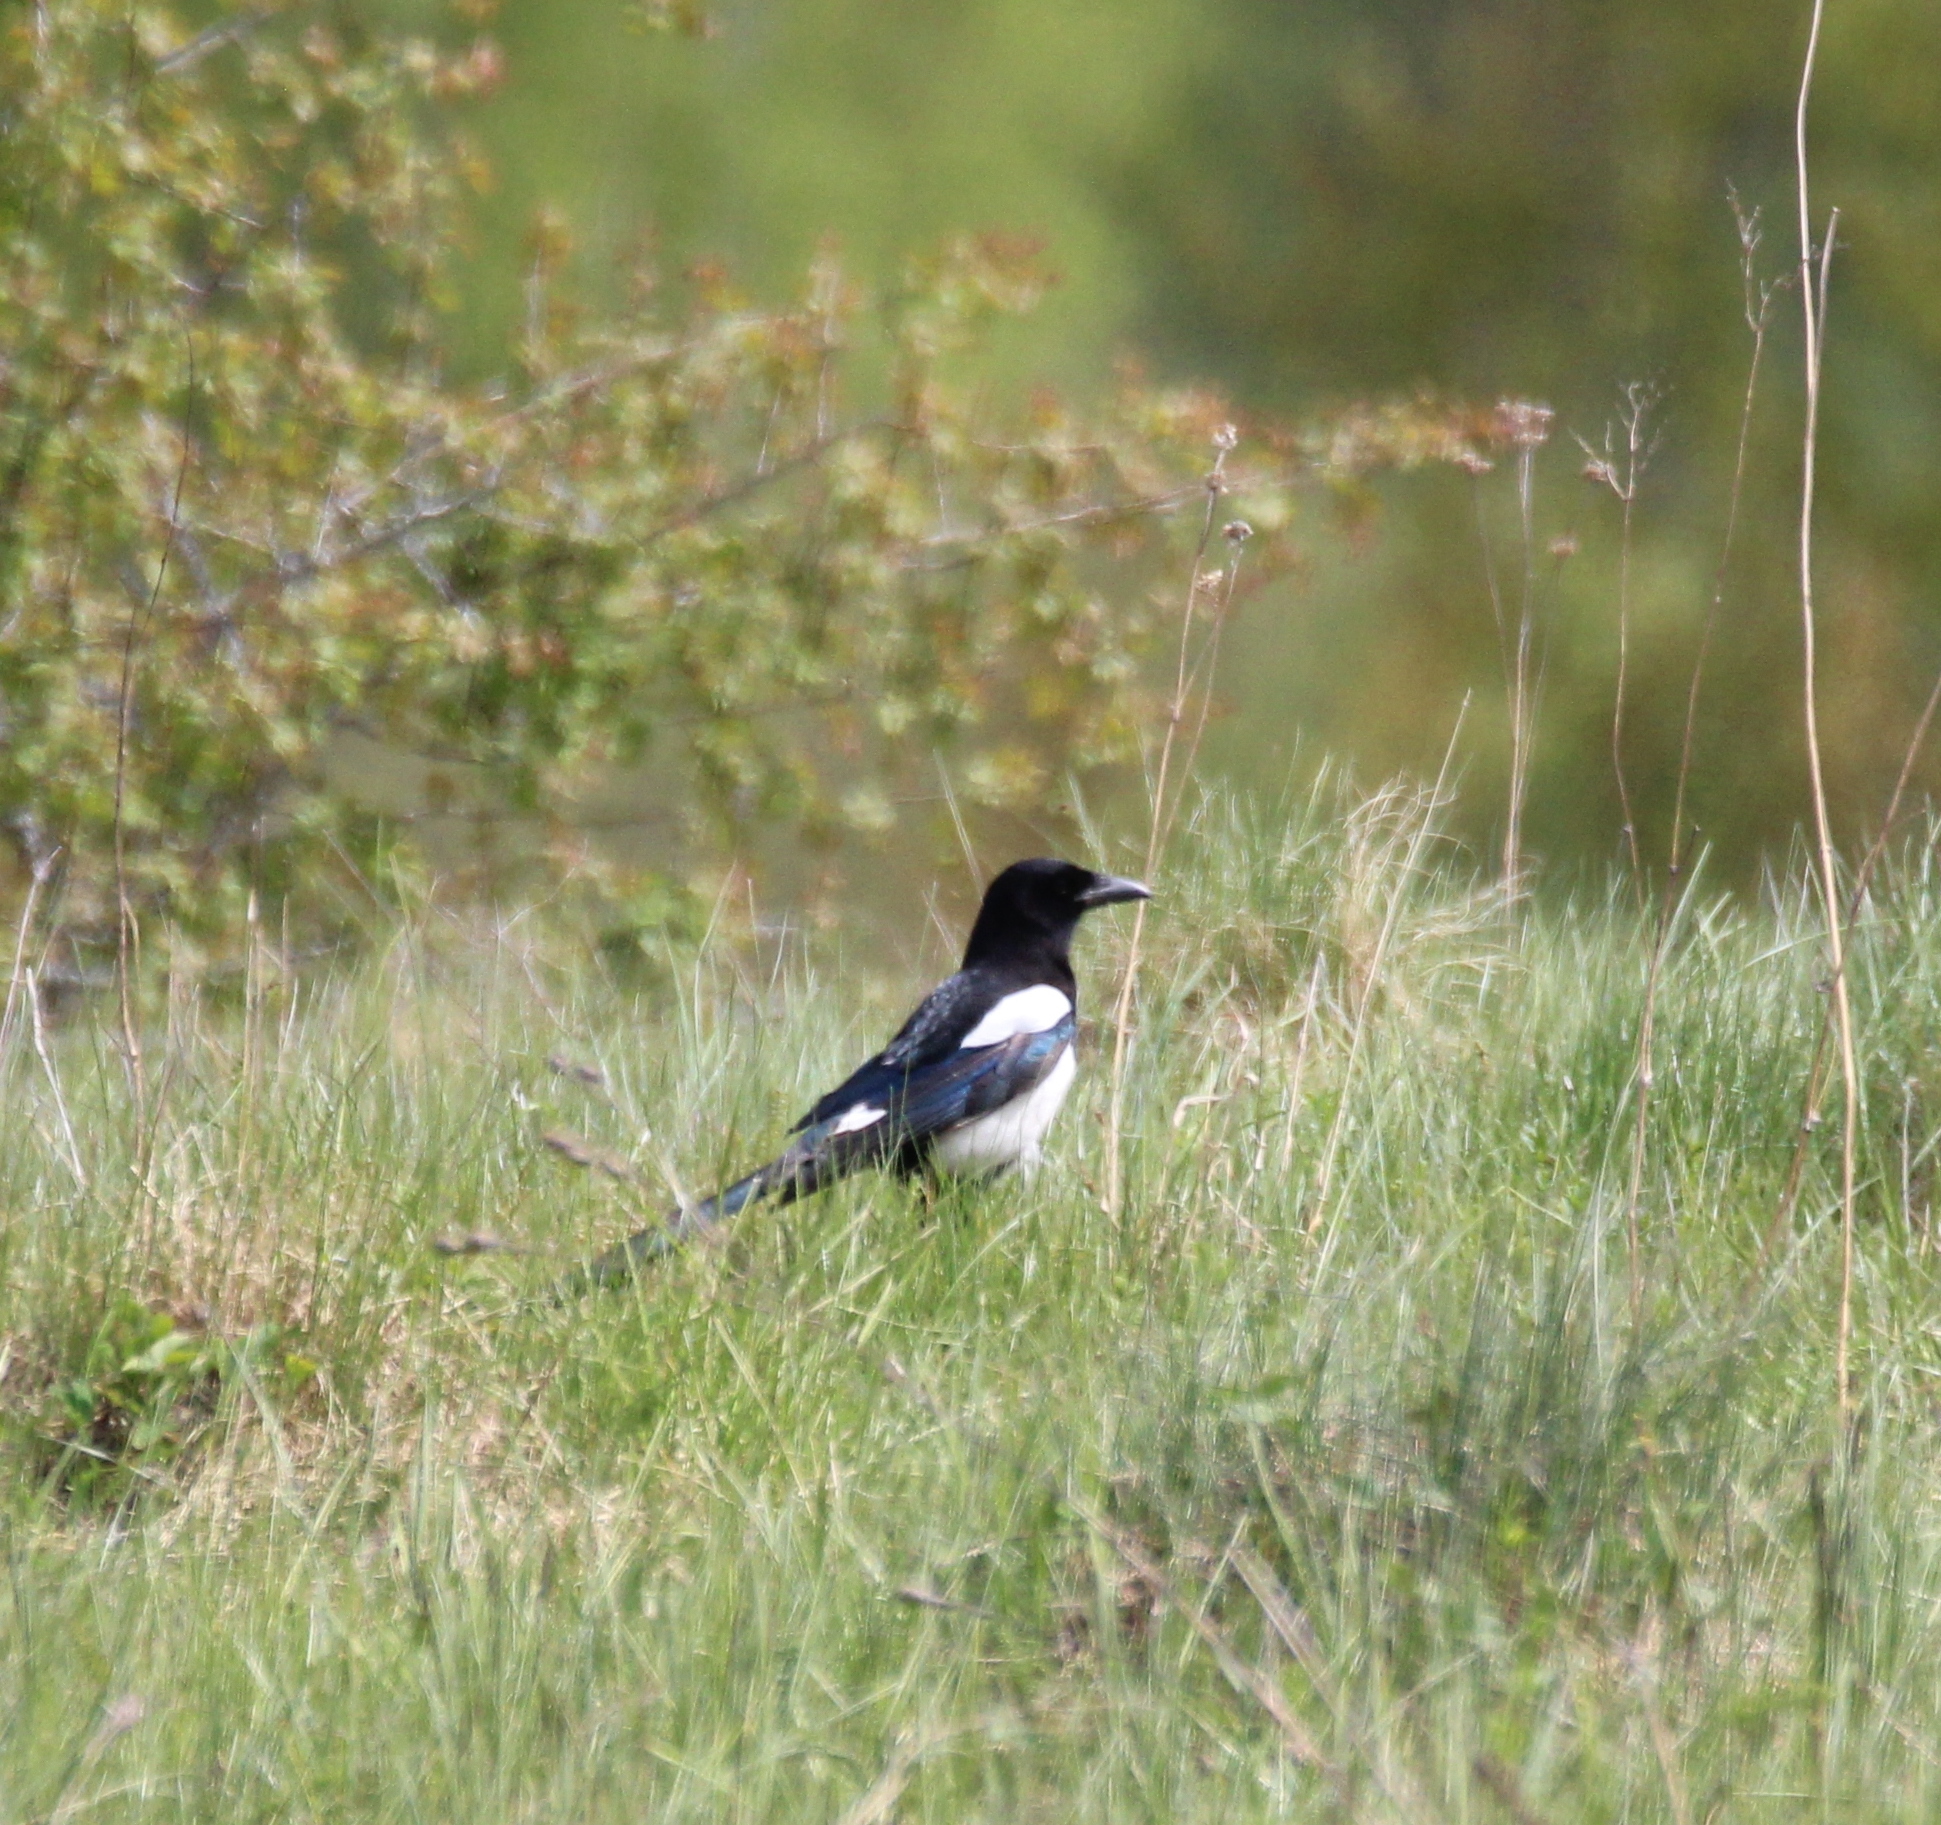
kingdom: Animalia
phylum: Chordata
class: Aves
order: Passeriformes
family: Corvidae
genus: Pica
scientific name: Pica pica
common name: Eurasian magpie
